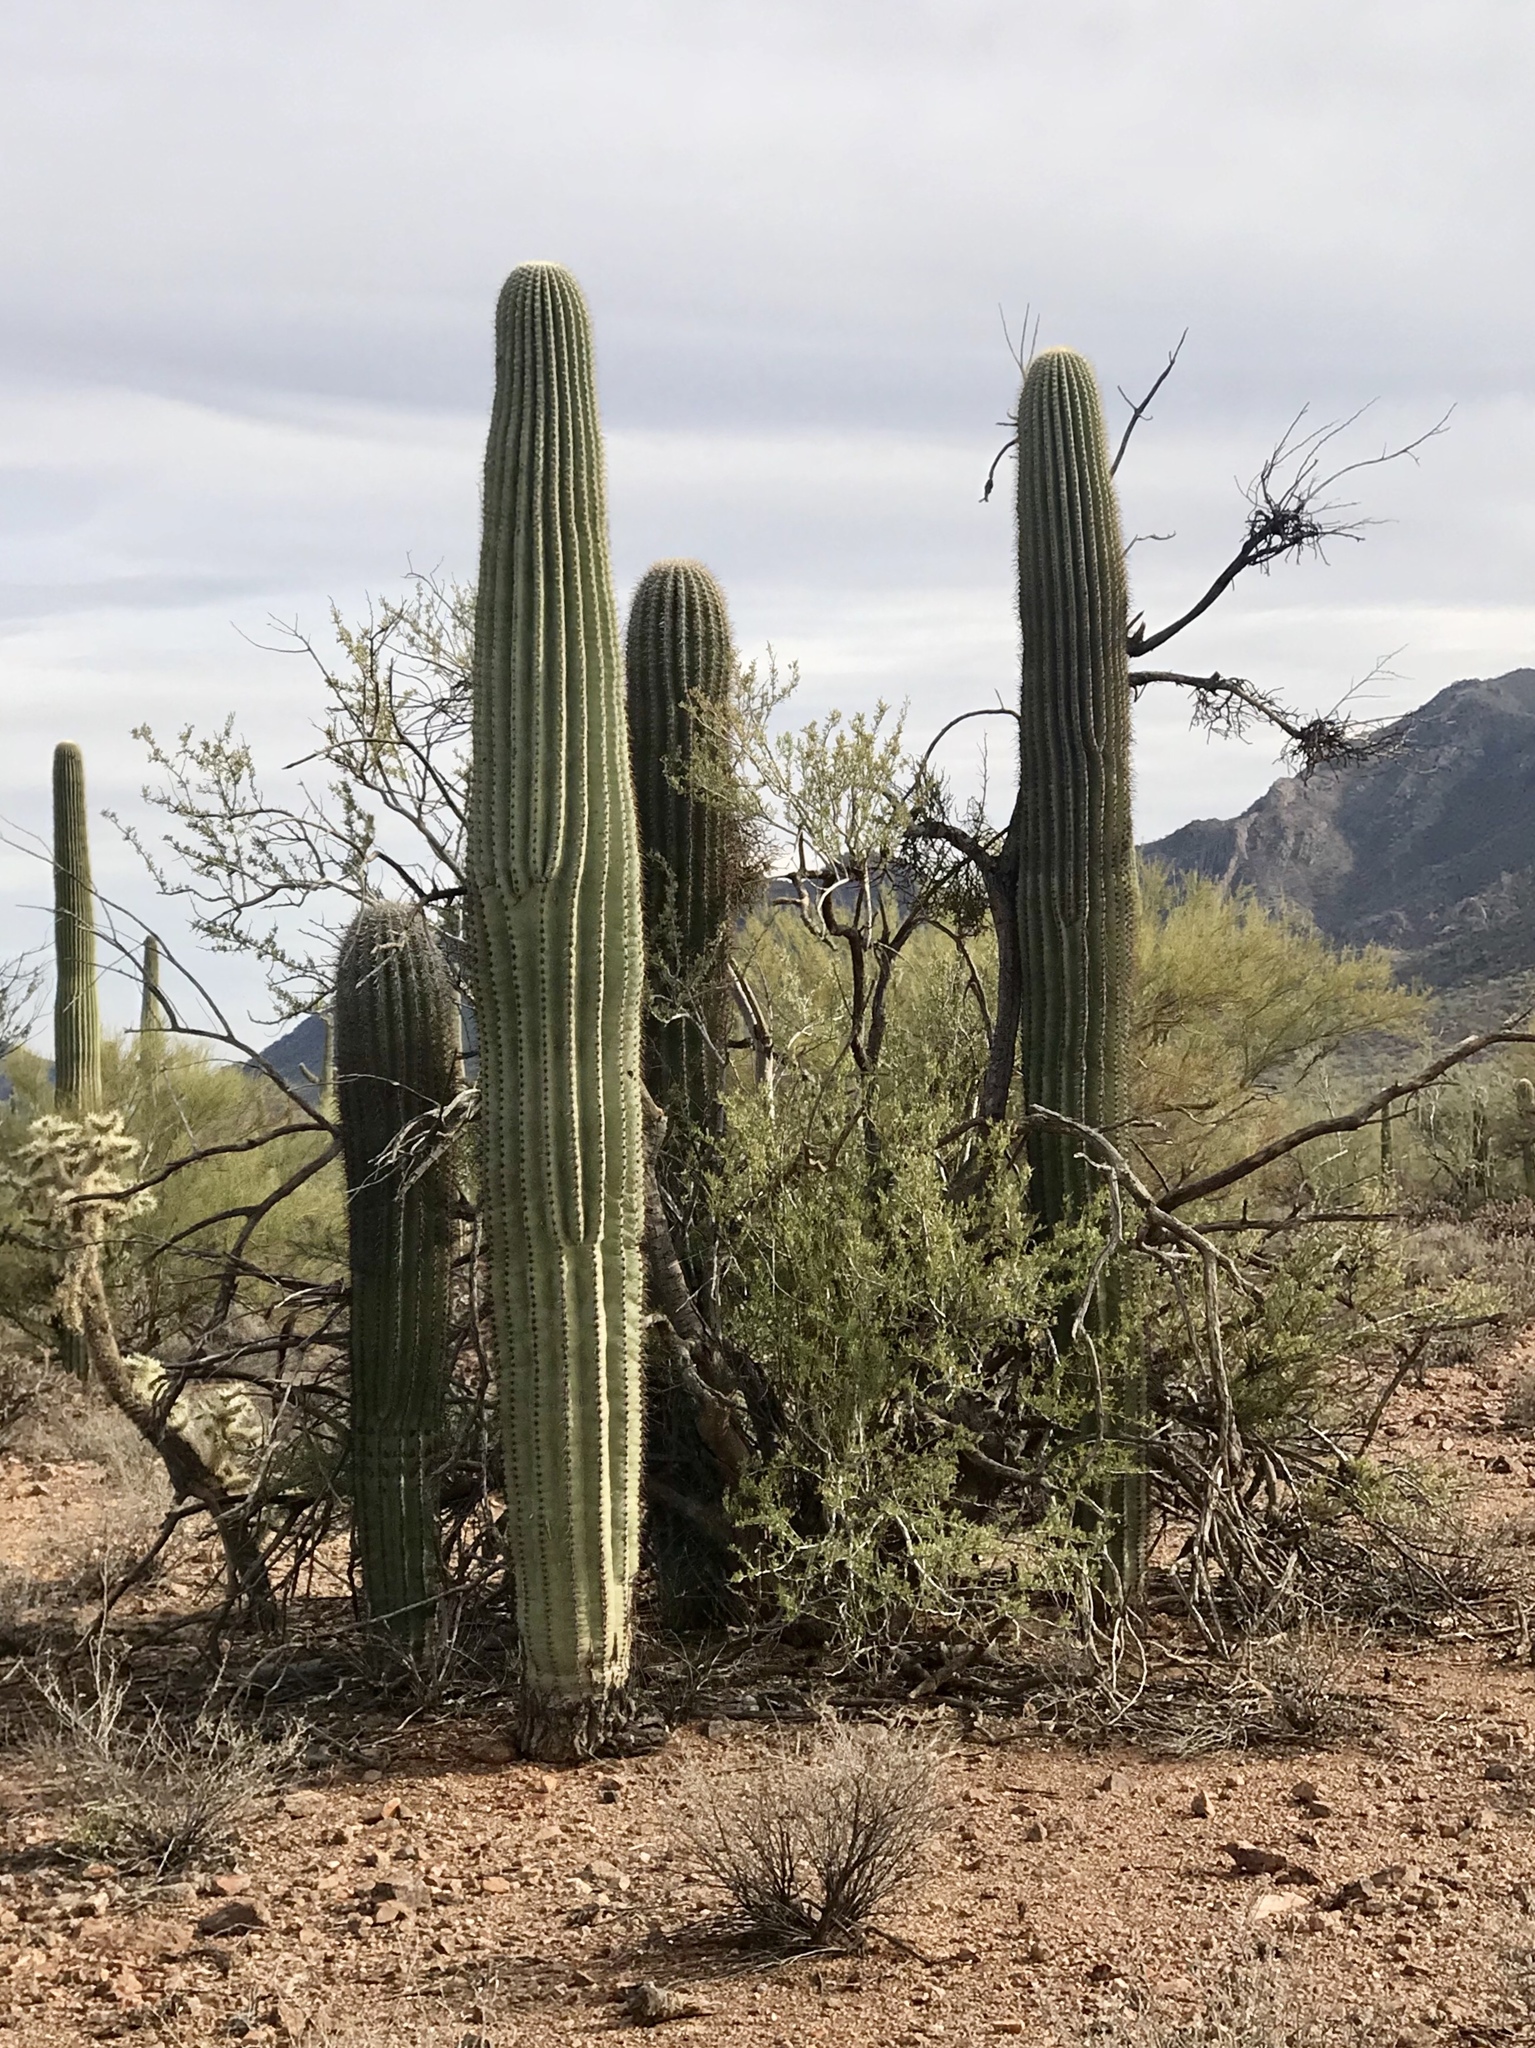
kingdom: Plantae
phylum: Tracheophyta
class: Magnoliopsida
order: Caryophyllales
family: Cactaceae
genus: Carnegiea
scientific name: Carnegiea gigantea
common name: Saguaro
